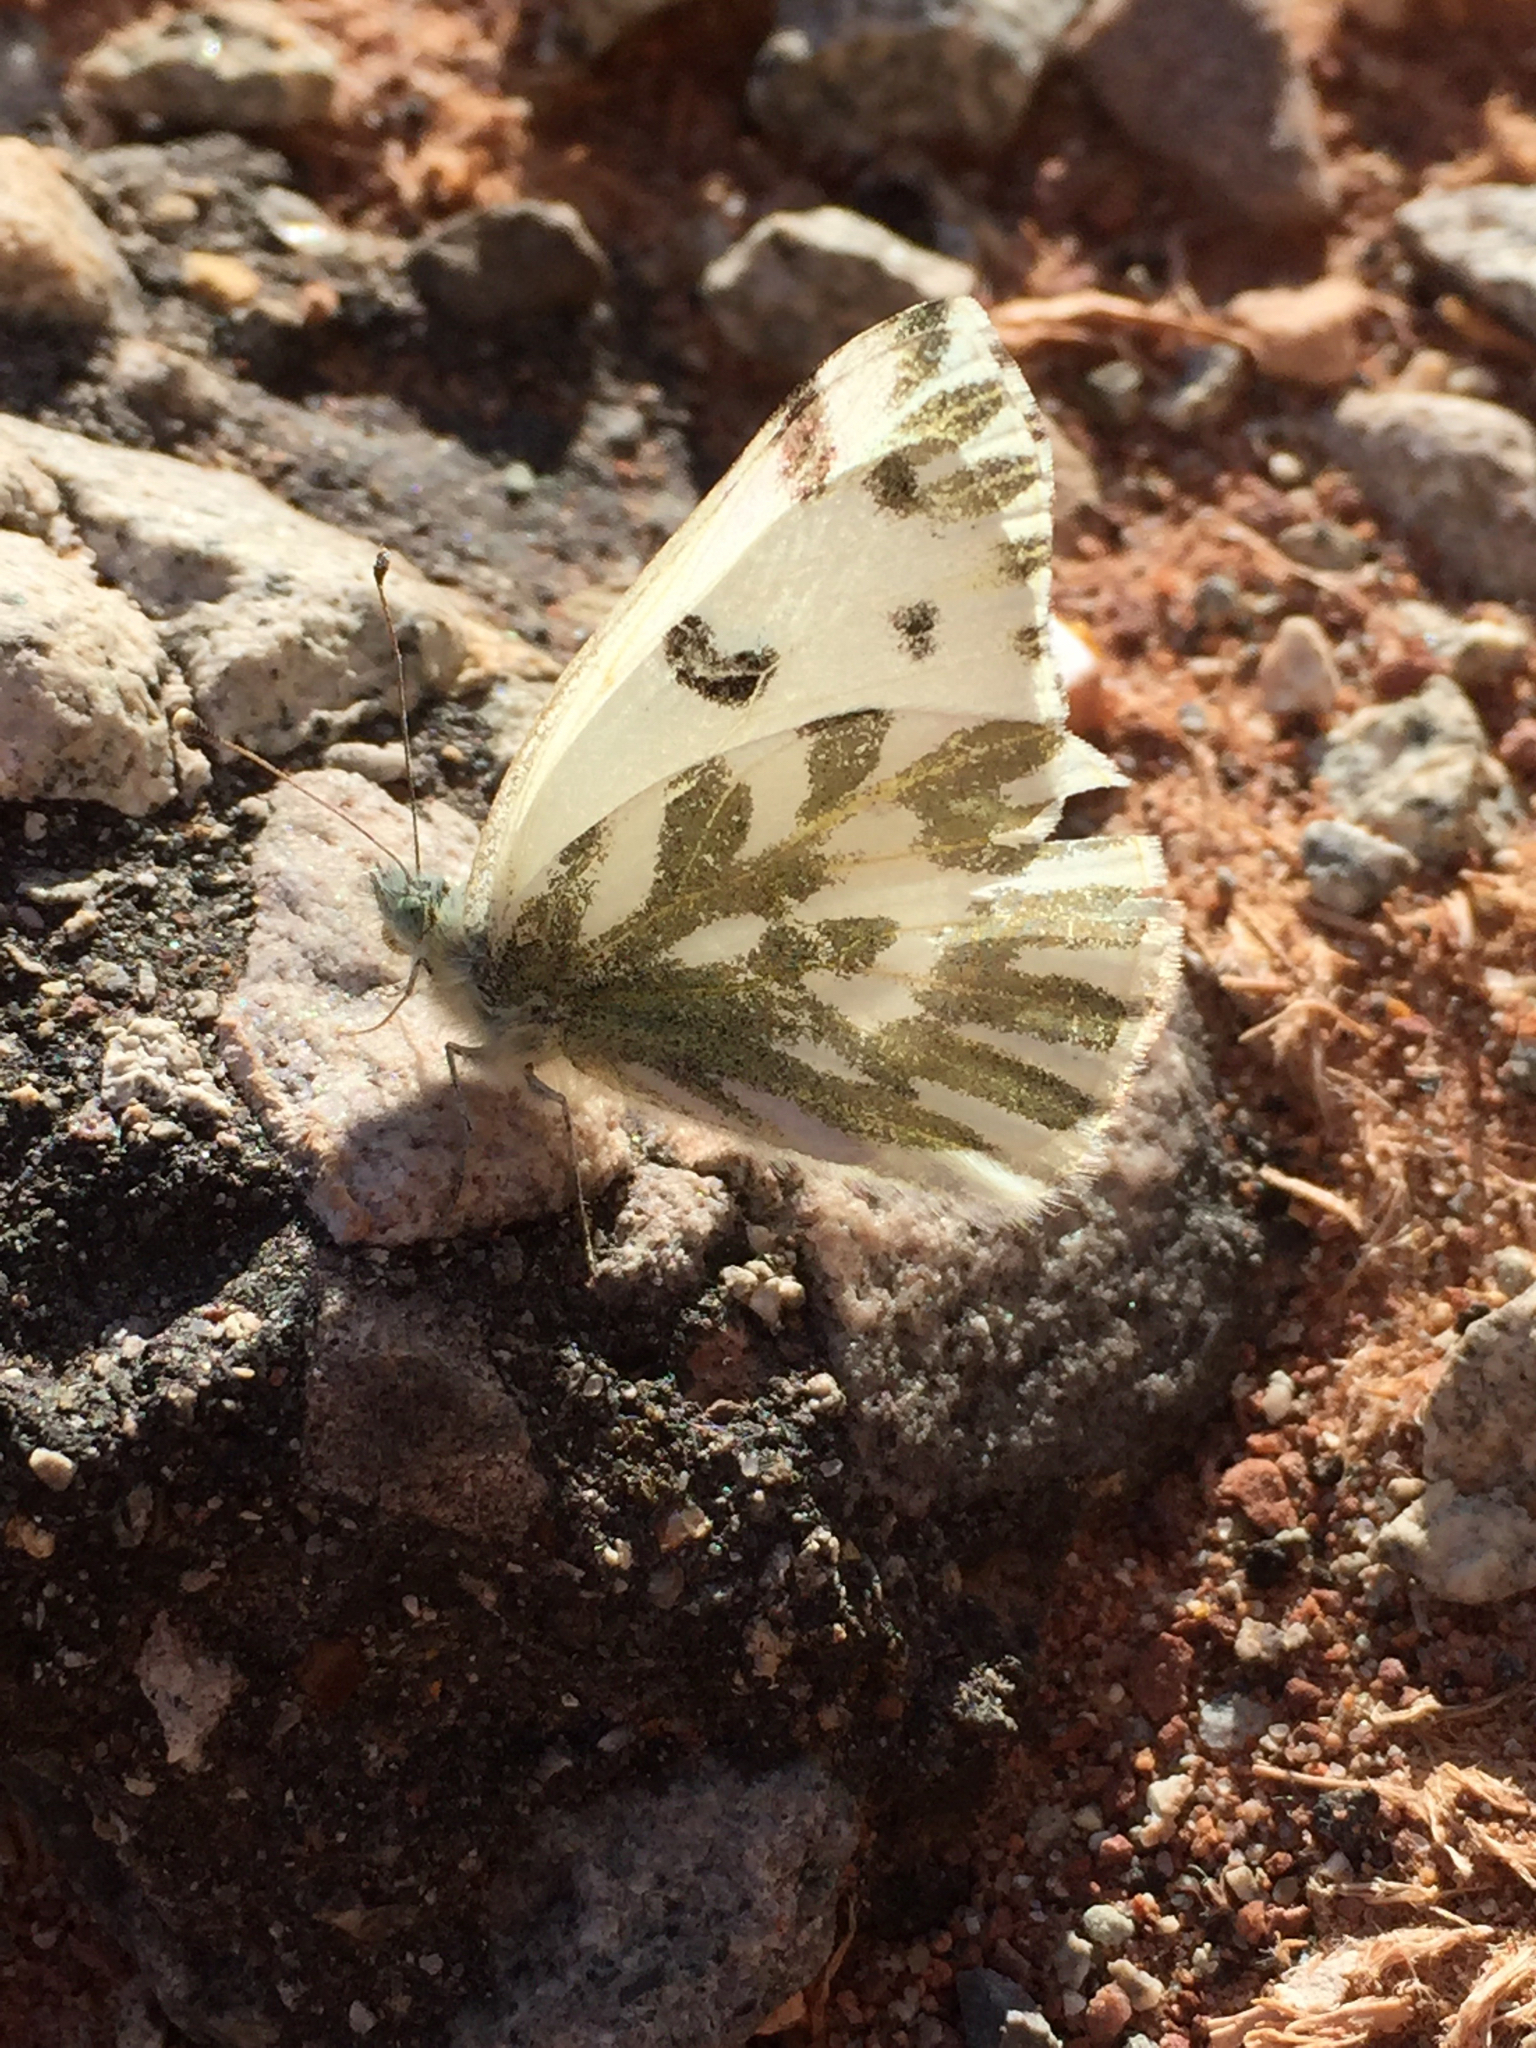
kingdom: Animalia
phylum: Arthropoda
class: Insecta
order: Lepidoptera
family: Pieridae
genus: Pontia
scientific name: Pontia beckerii
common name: Becker's white
